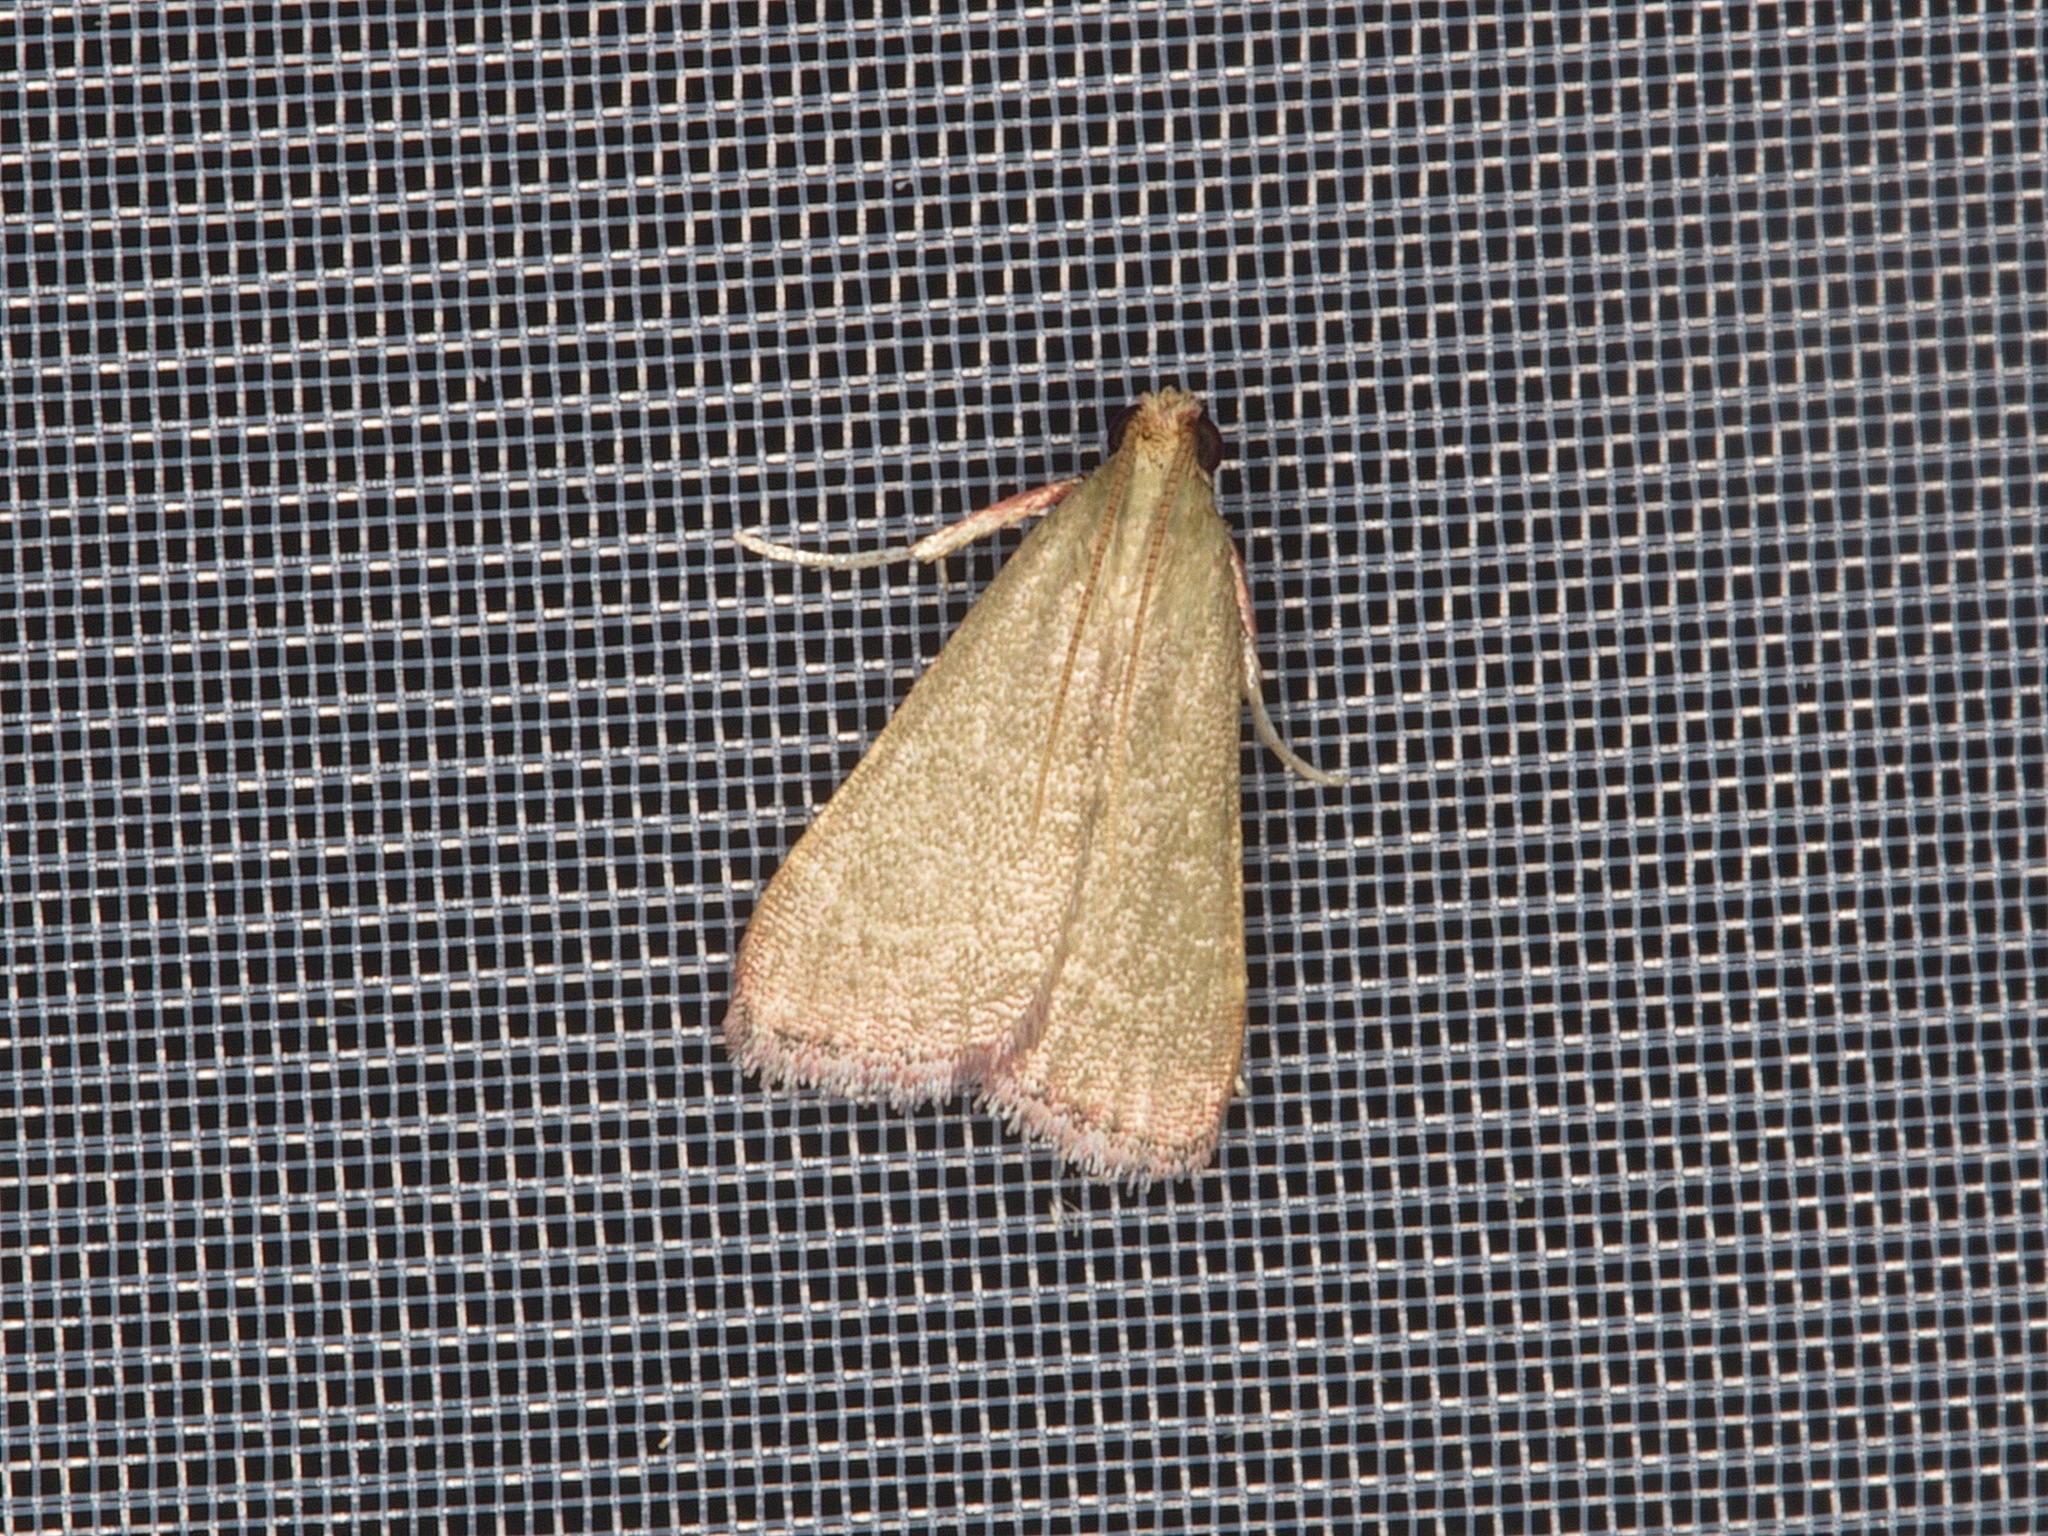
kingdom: Animalia
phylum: Arthropoda
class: Insecta
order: Lepidoptera
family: Pyralidae
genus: Arta
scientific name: Arta olivalis
